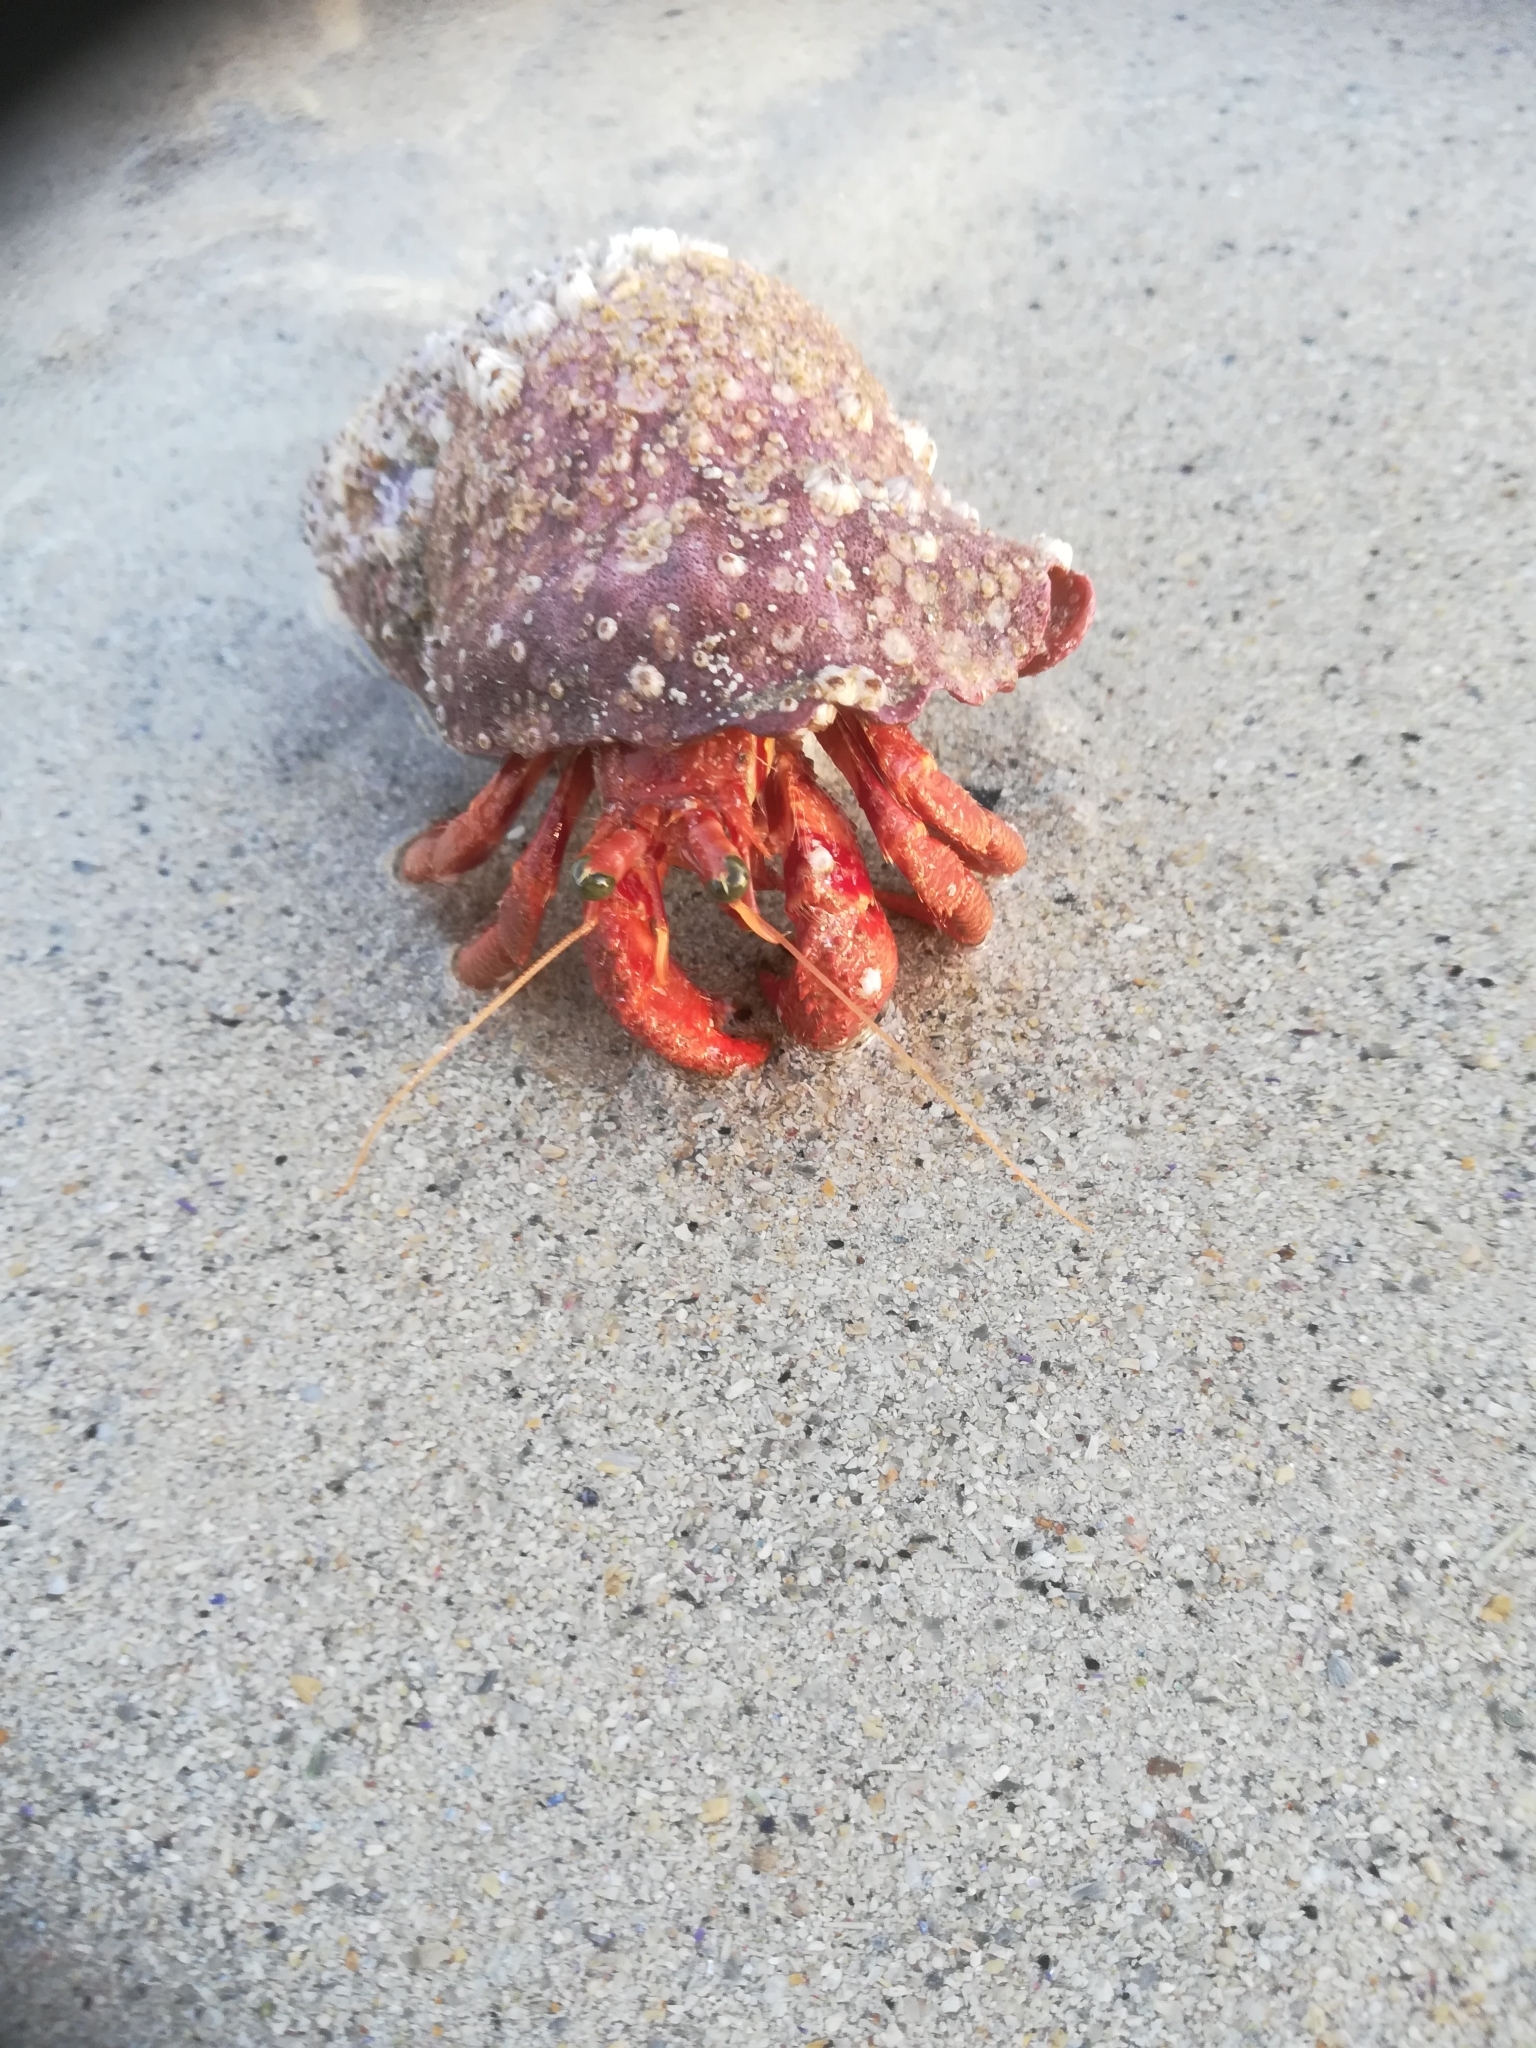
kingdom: Animalia
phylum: Arthropoda
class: Malacostraca
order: Decapoda
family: Diogenidae
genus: Dardanus
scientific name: Dardanus arrosor
